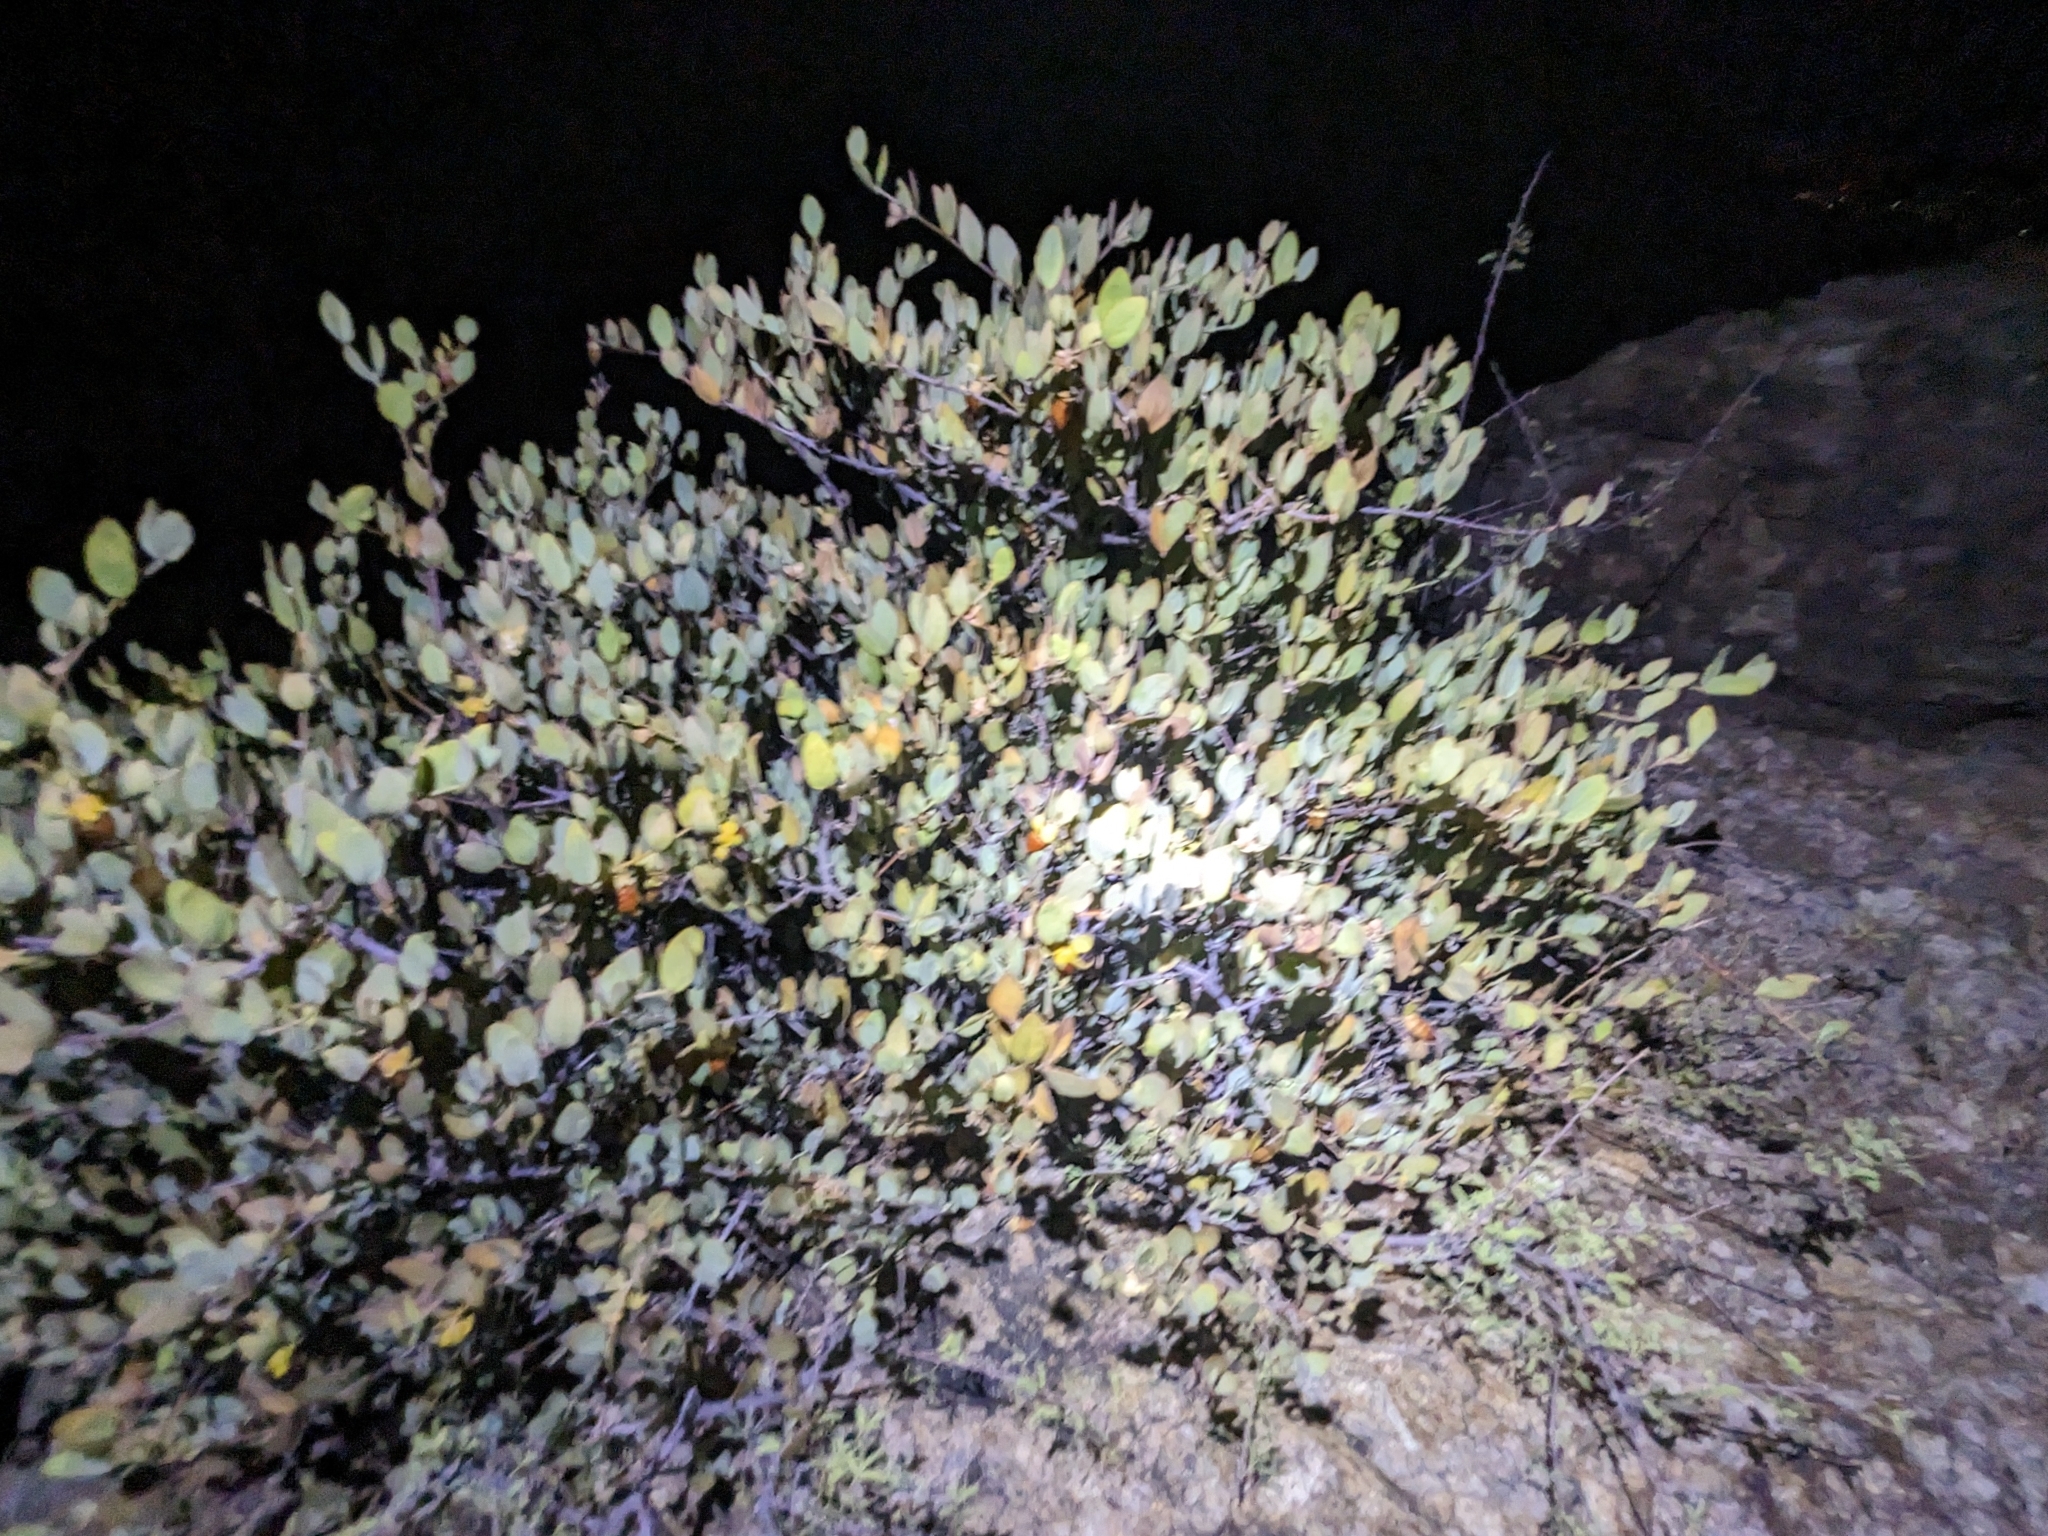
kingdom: Plantae
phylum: Tracheophyta
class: Magnoliopsida
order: Caryophyllales
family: Simmondsiaceae
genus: Simmondsia
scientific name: Simmondsia chinensis
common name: Jojoba
